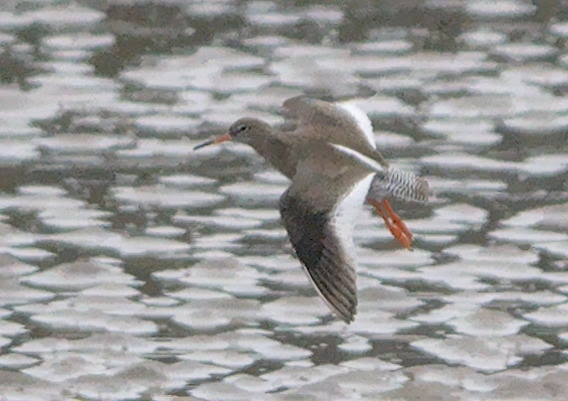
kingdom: Animalia
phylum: Chordata
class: Aves
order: Charadriiformes
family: Scolopacidae
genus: Tringa
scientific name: Tringa totanus
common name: Common redshank
